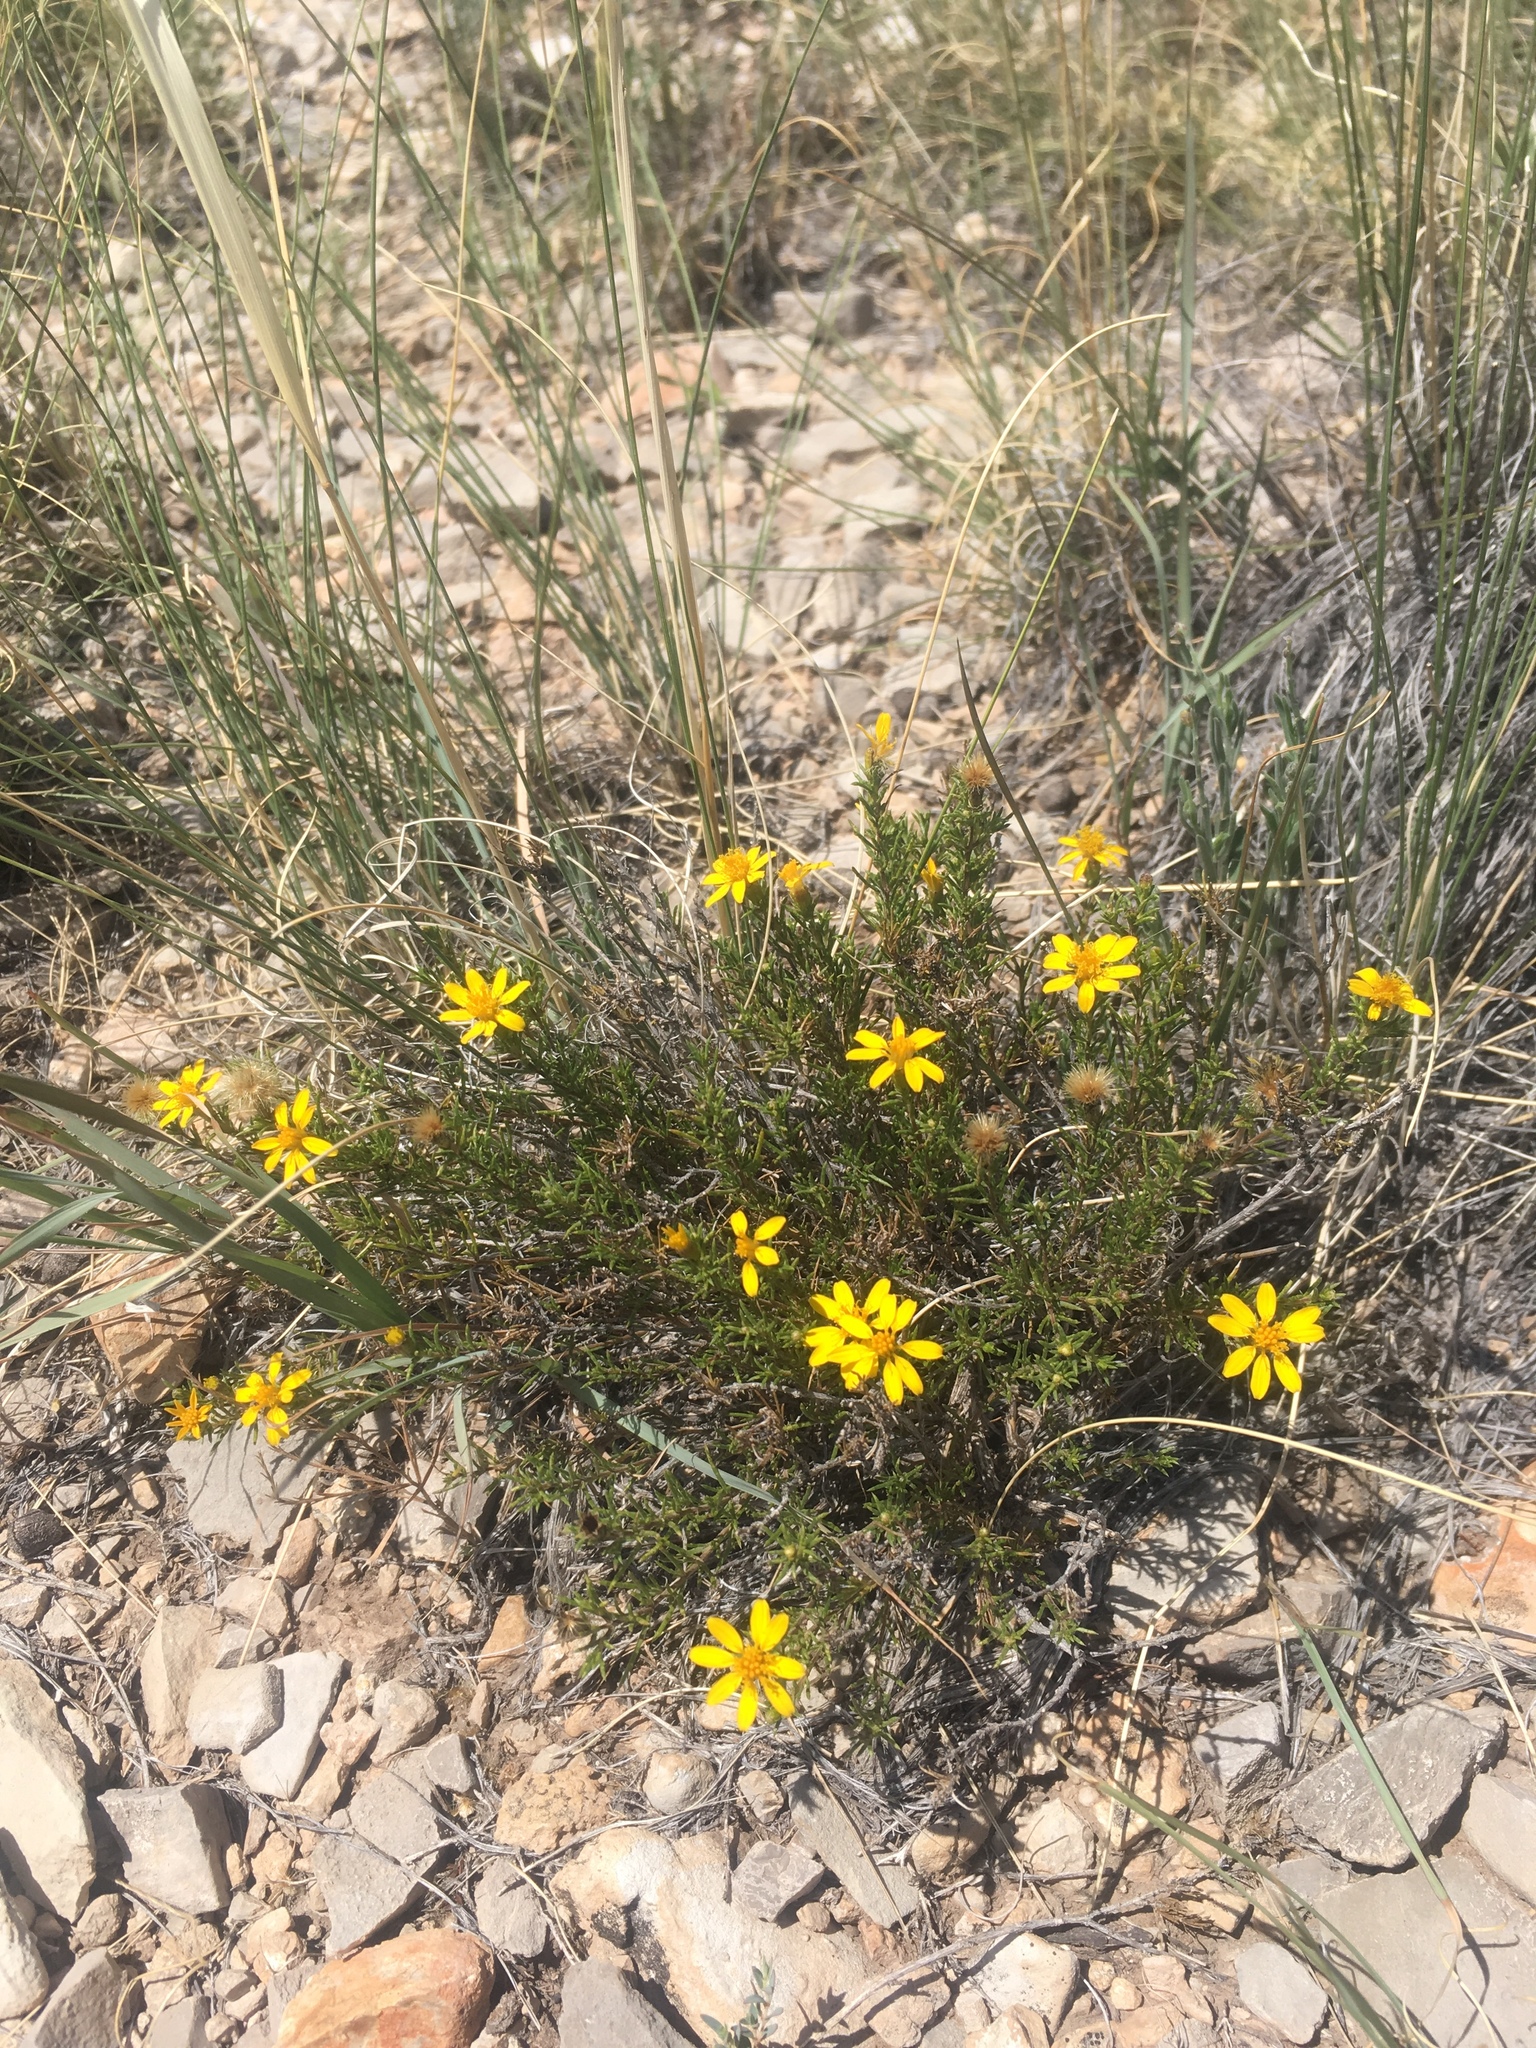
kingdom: Plantae
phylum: Tracheophyta
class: Magnoliopsida
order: Asterales
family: Asteraceae
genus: Thymophylla
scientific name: Thymophylla acerosa
